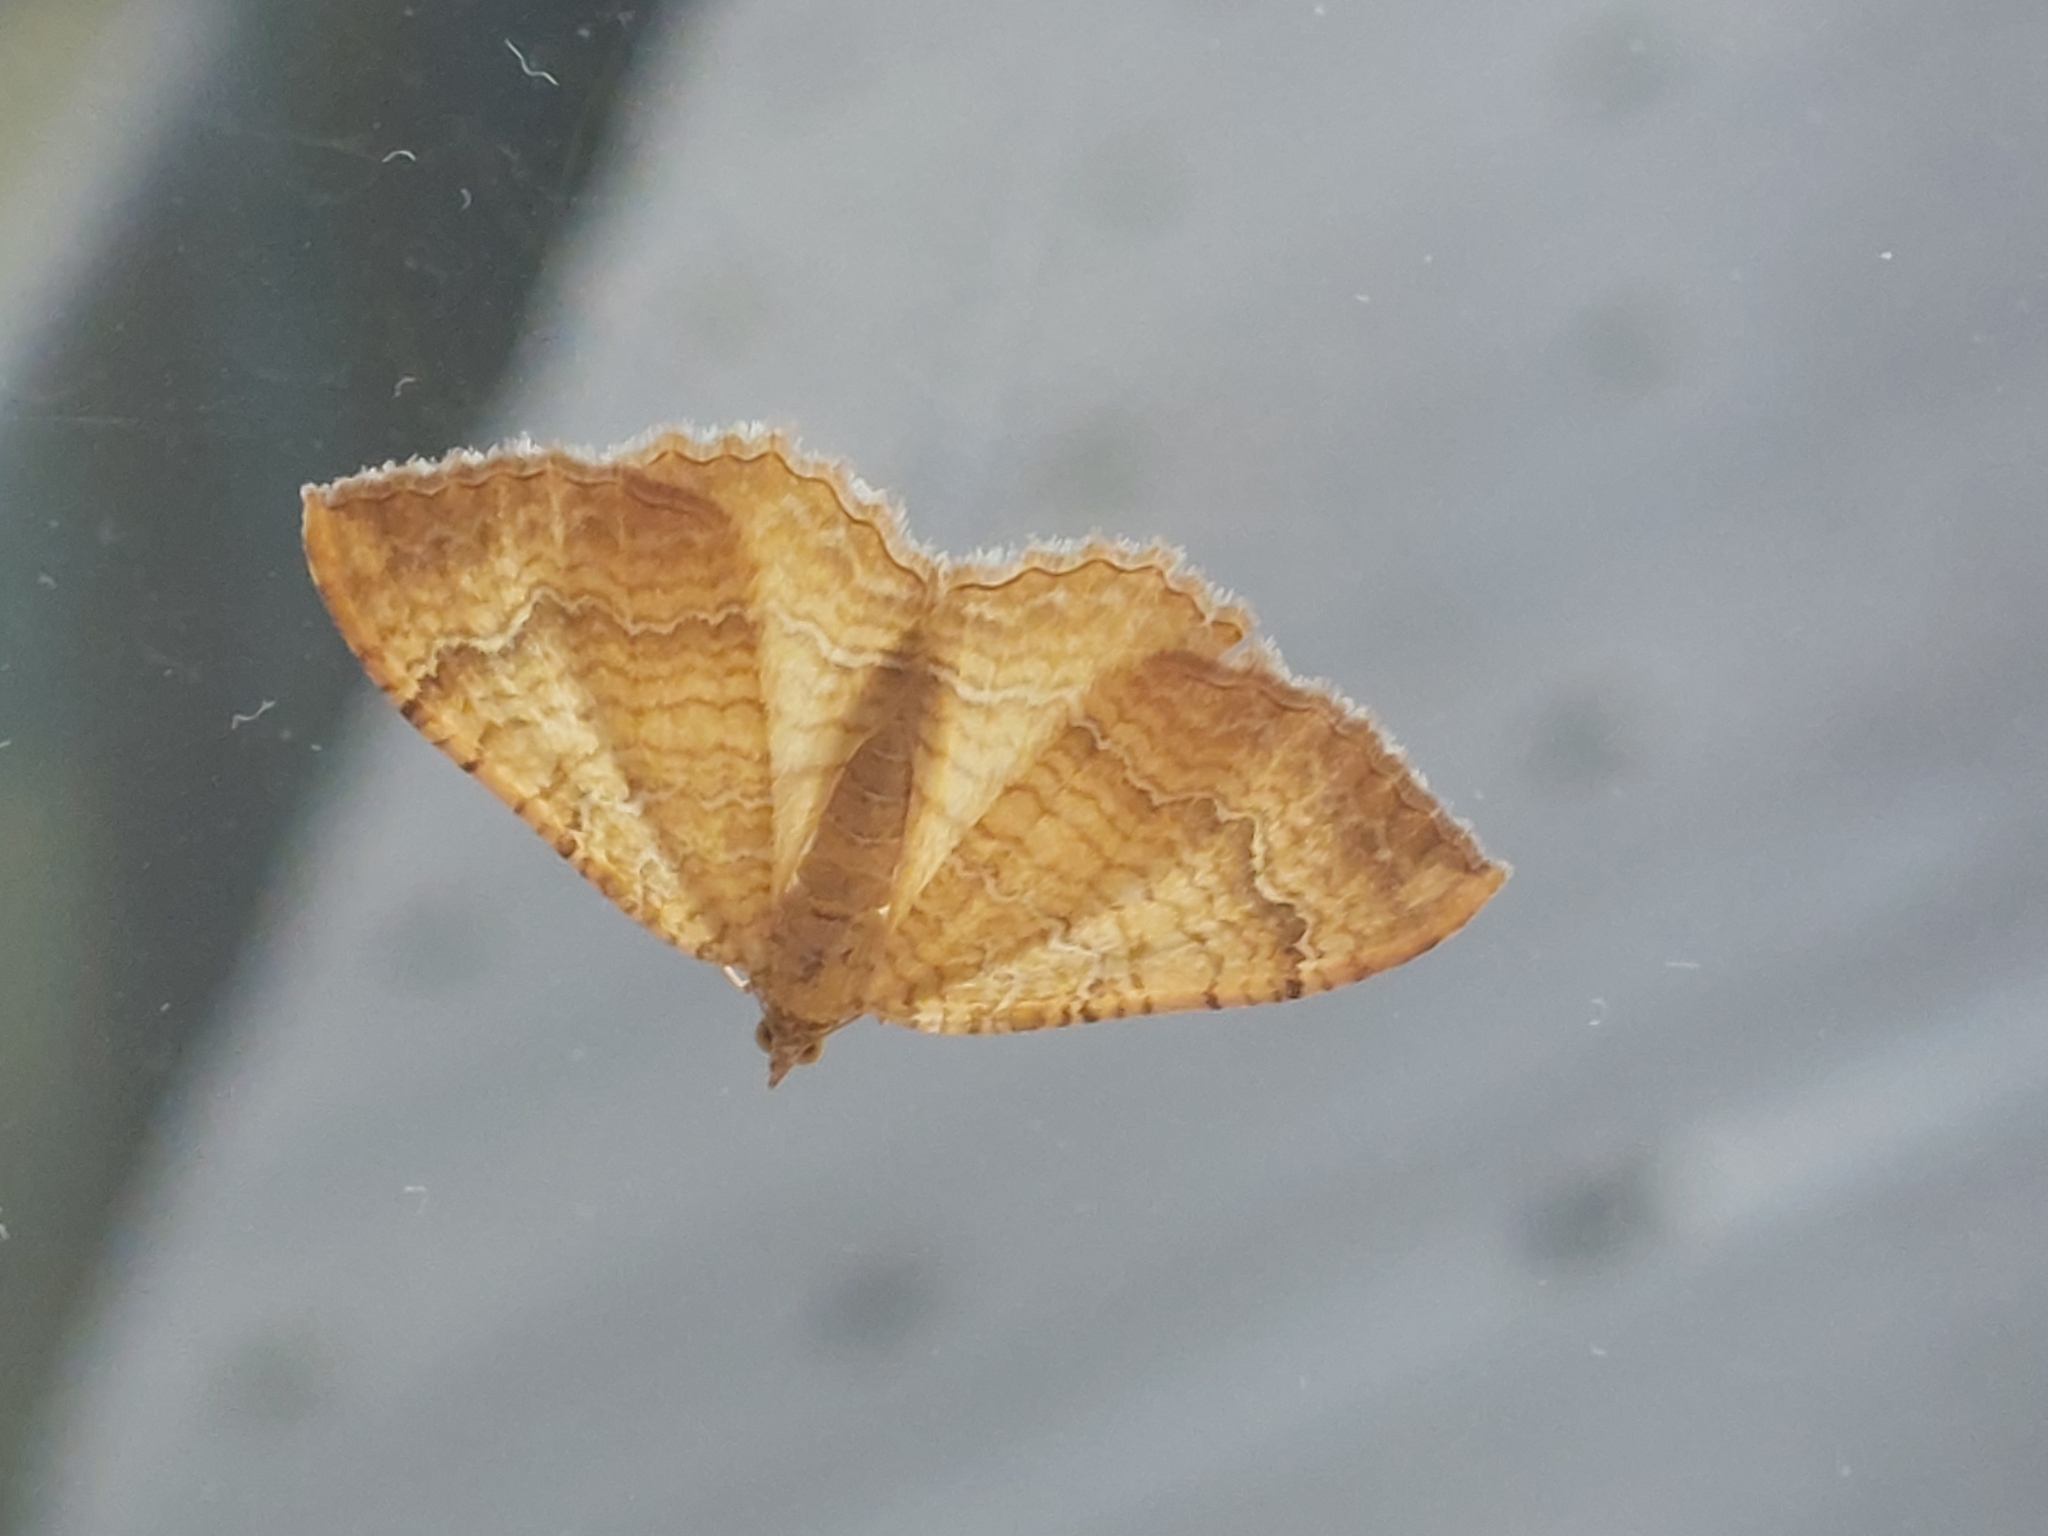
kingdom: Animalia
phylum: Arthropoda
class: Insecta
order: Lepidoptera
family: Geometridae
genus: Camptogramma
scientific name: Camptogramma bilineata
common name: Yellow shell
